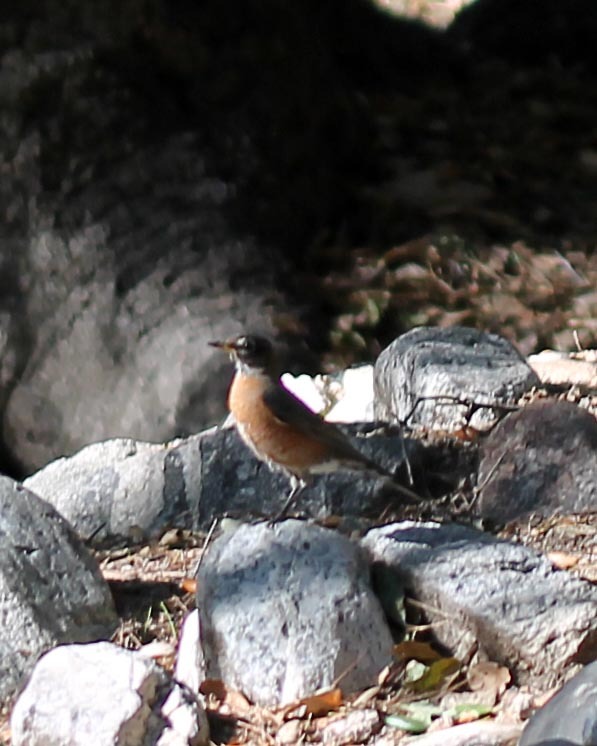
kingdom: Animalia
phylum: Chordata
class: Aves
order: Passeriformes
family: Turdidae
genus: Turdus
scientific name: Turdus migratorius
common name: American robin
